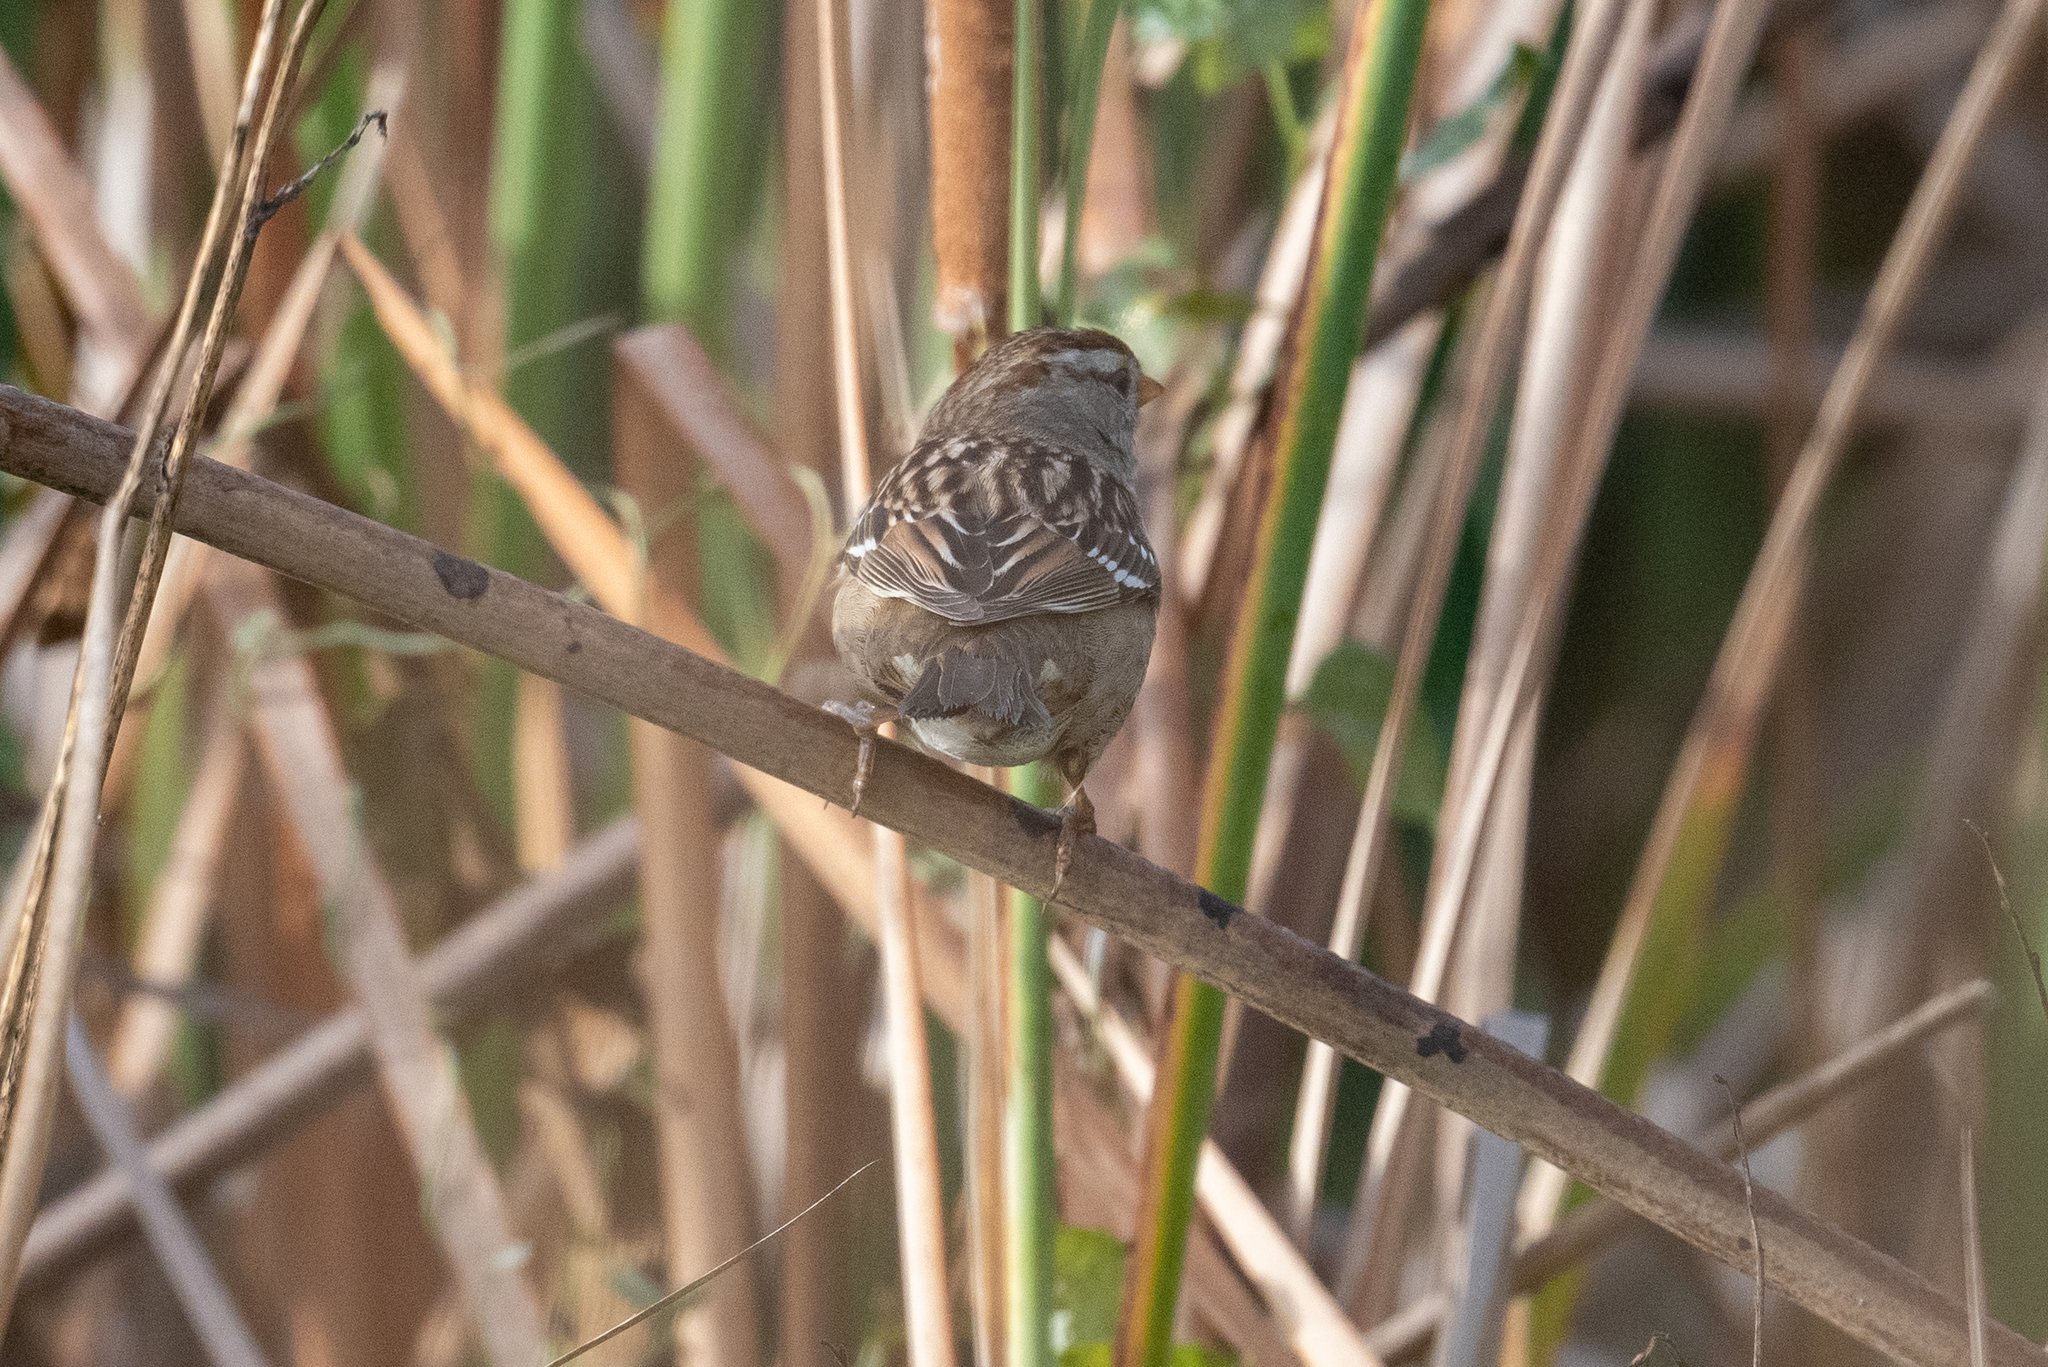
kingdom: Animalia
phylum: Chordata
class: Aves
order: Passeriformes
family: Passerellidae
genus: Zonotrichia
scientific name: Zonotrichia leucophrys
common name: White-crowned sparrow
